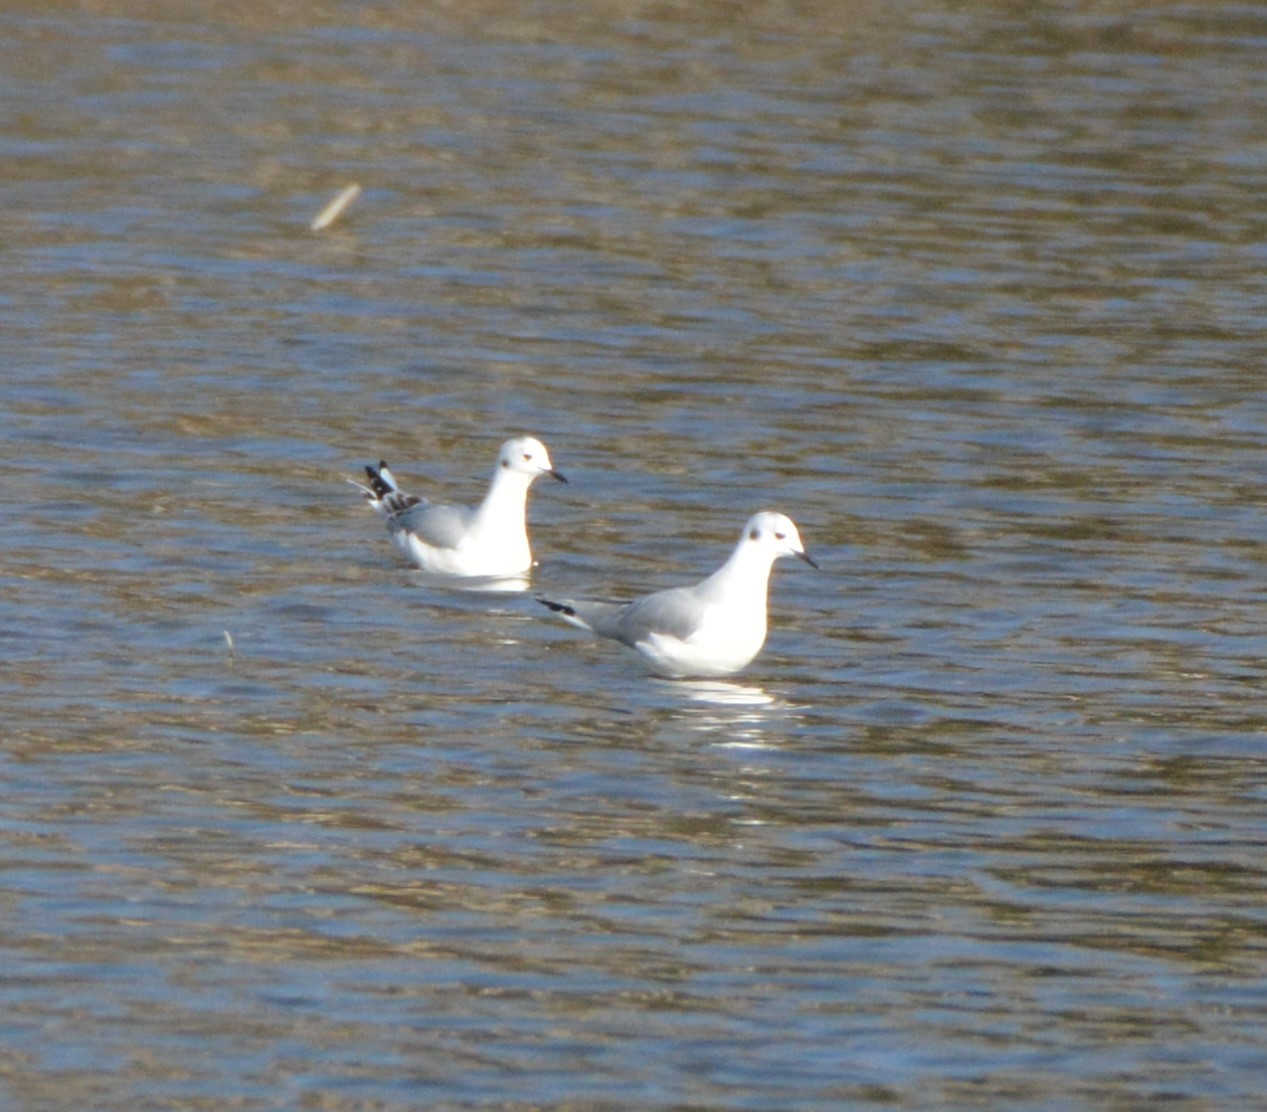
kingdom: Animalia
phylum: Chordata
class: Aves
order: Charadriiformes
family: Laridae
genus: Chroicocephalus
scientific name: Chroicocephalus philadelphia
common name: Bonaparte's gull
